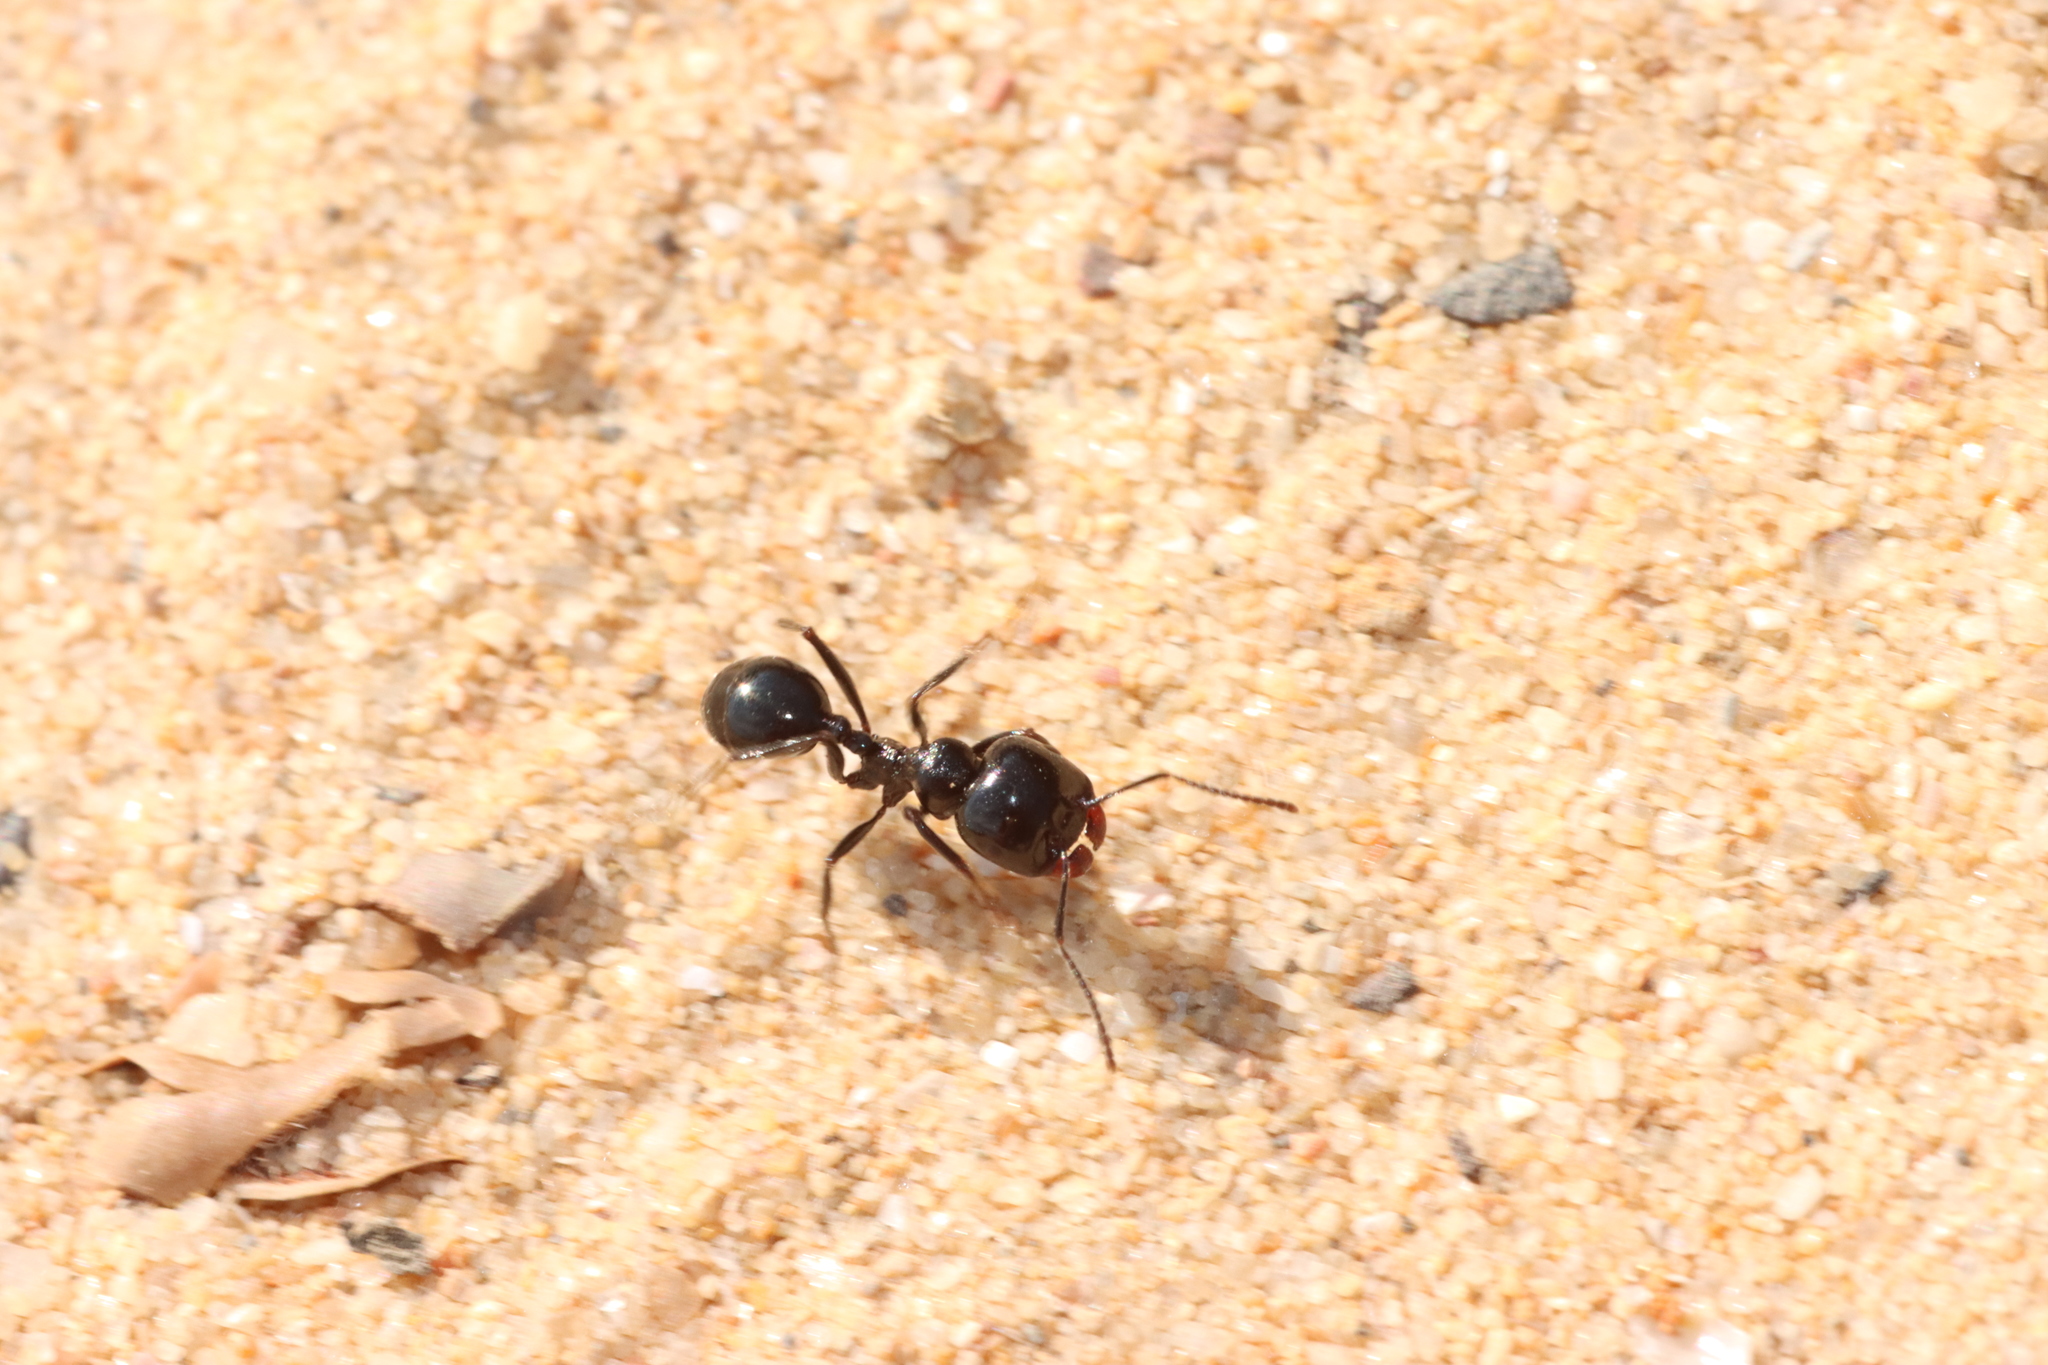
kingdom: Animalia
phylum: Arthropoda
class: Insecta
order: Hymenoptera
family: Formicidae
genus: Messor
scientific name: Messor bouvieri
